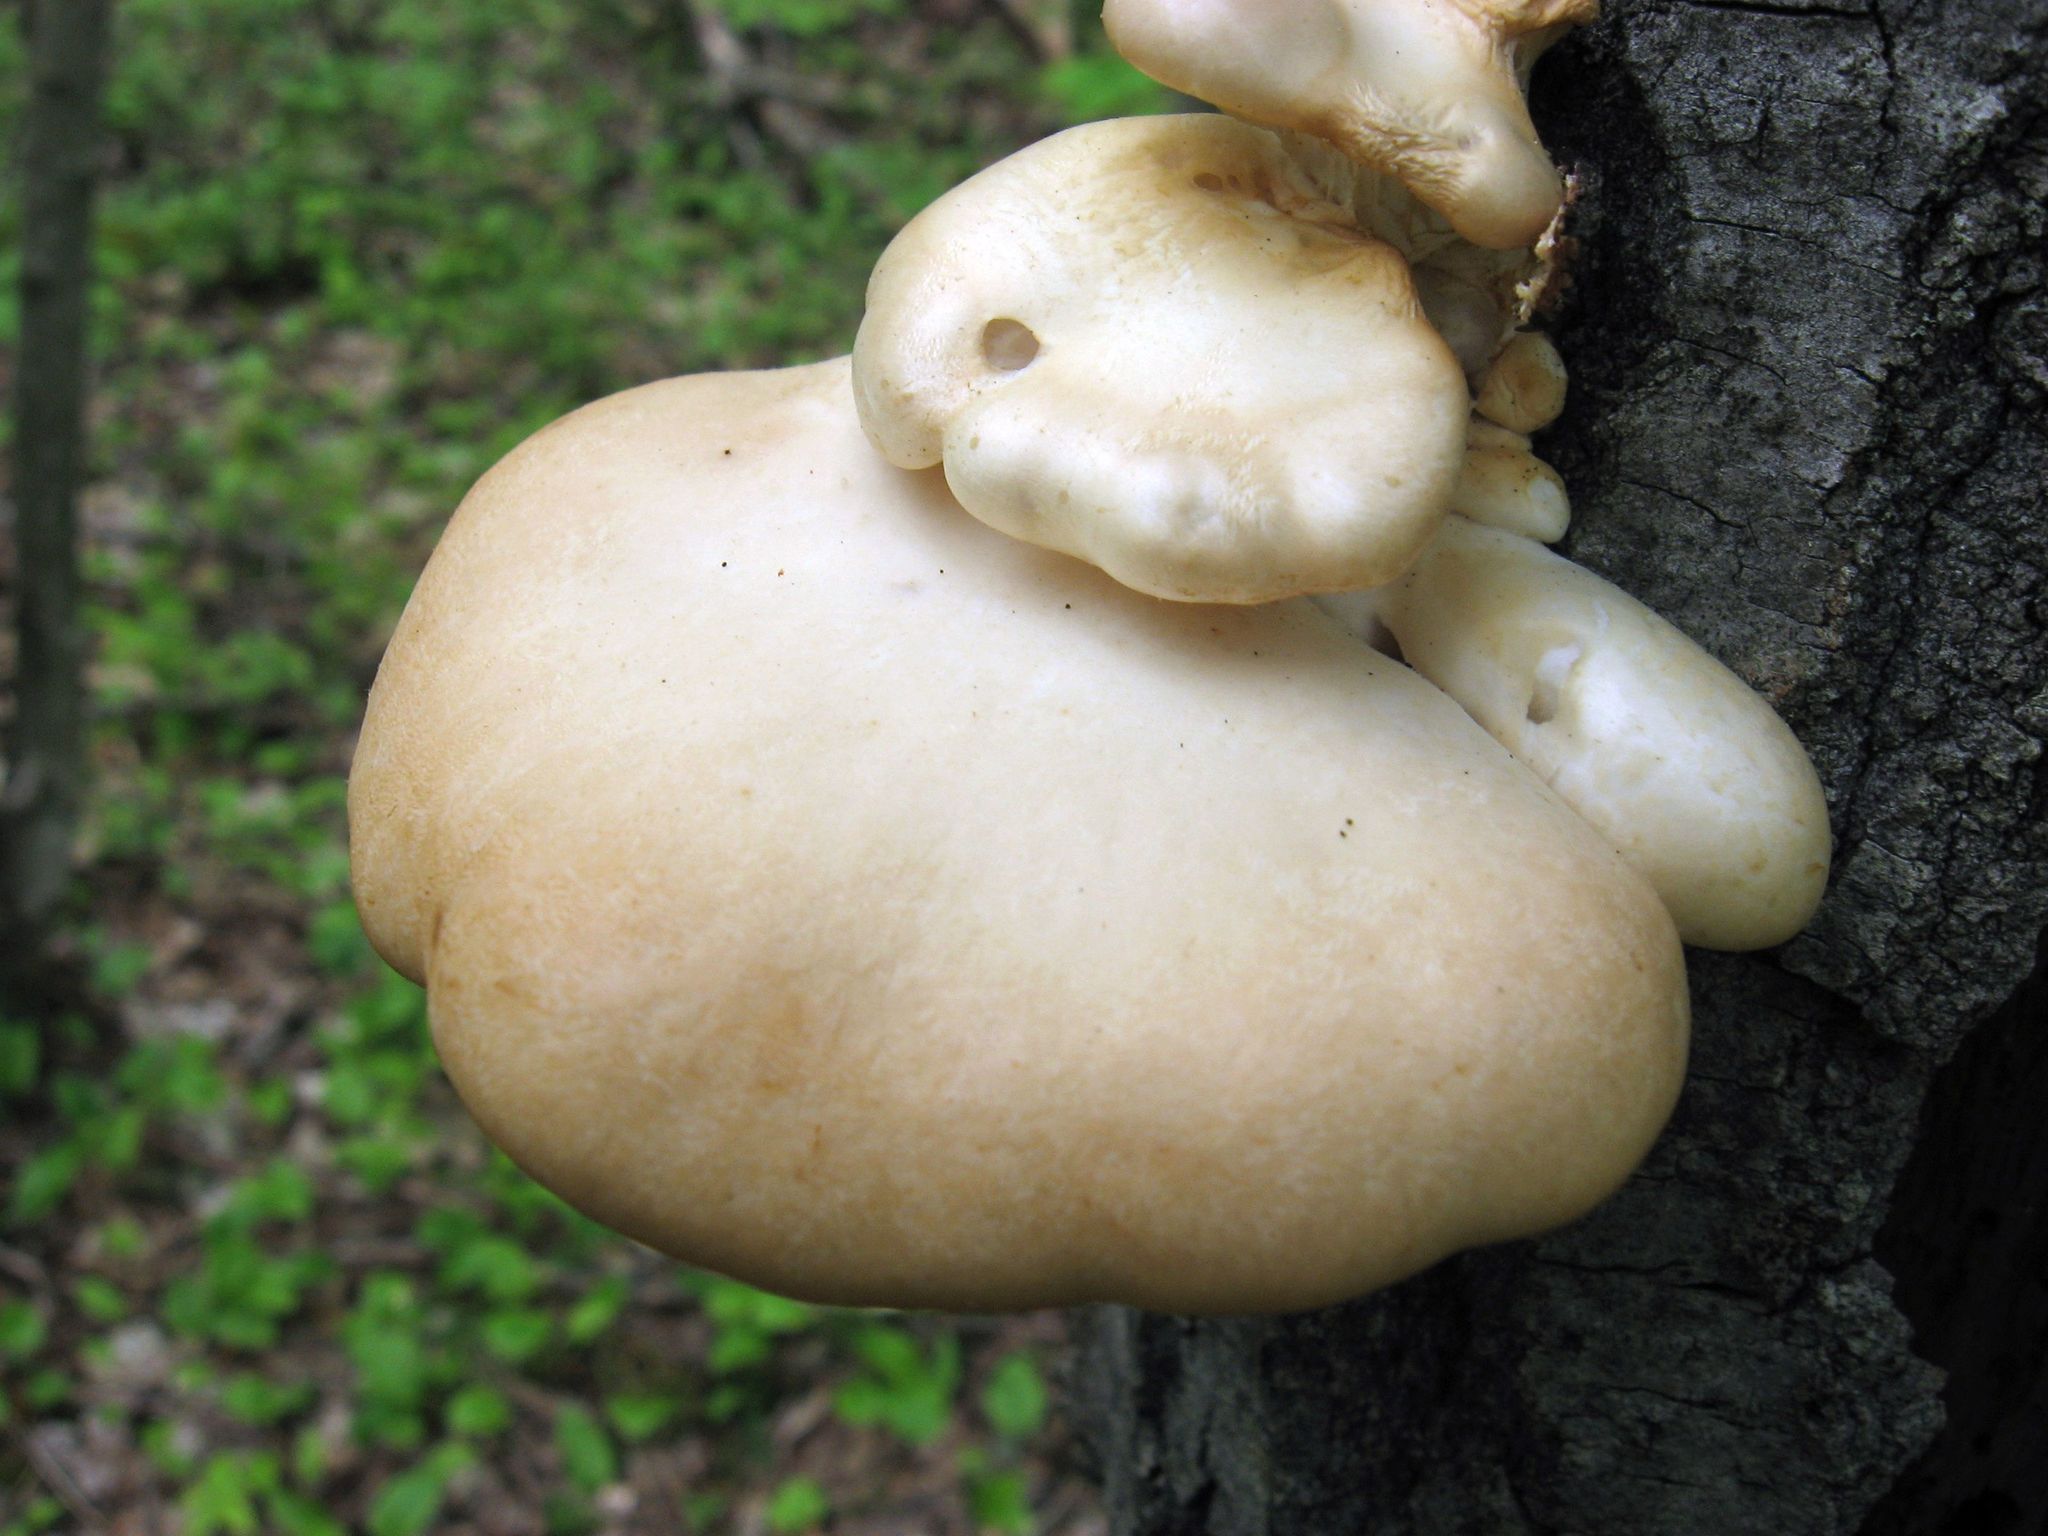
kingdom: Fungi
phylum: Basidiomycota
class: Agaricomycetes
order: Agaricales
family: Pleurotaceae
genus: Pleurotus
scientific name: Pleurotus populinus
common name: Aspen oyster mushroom
